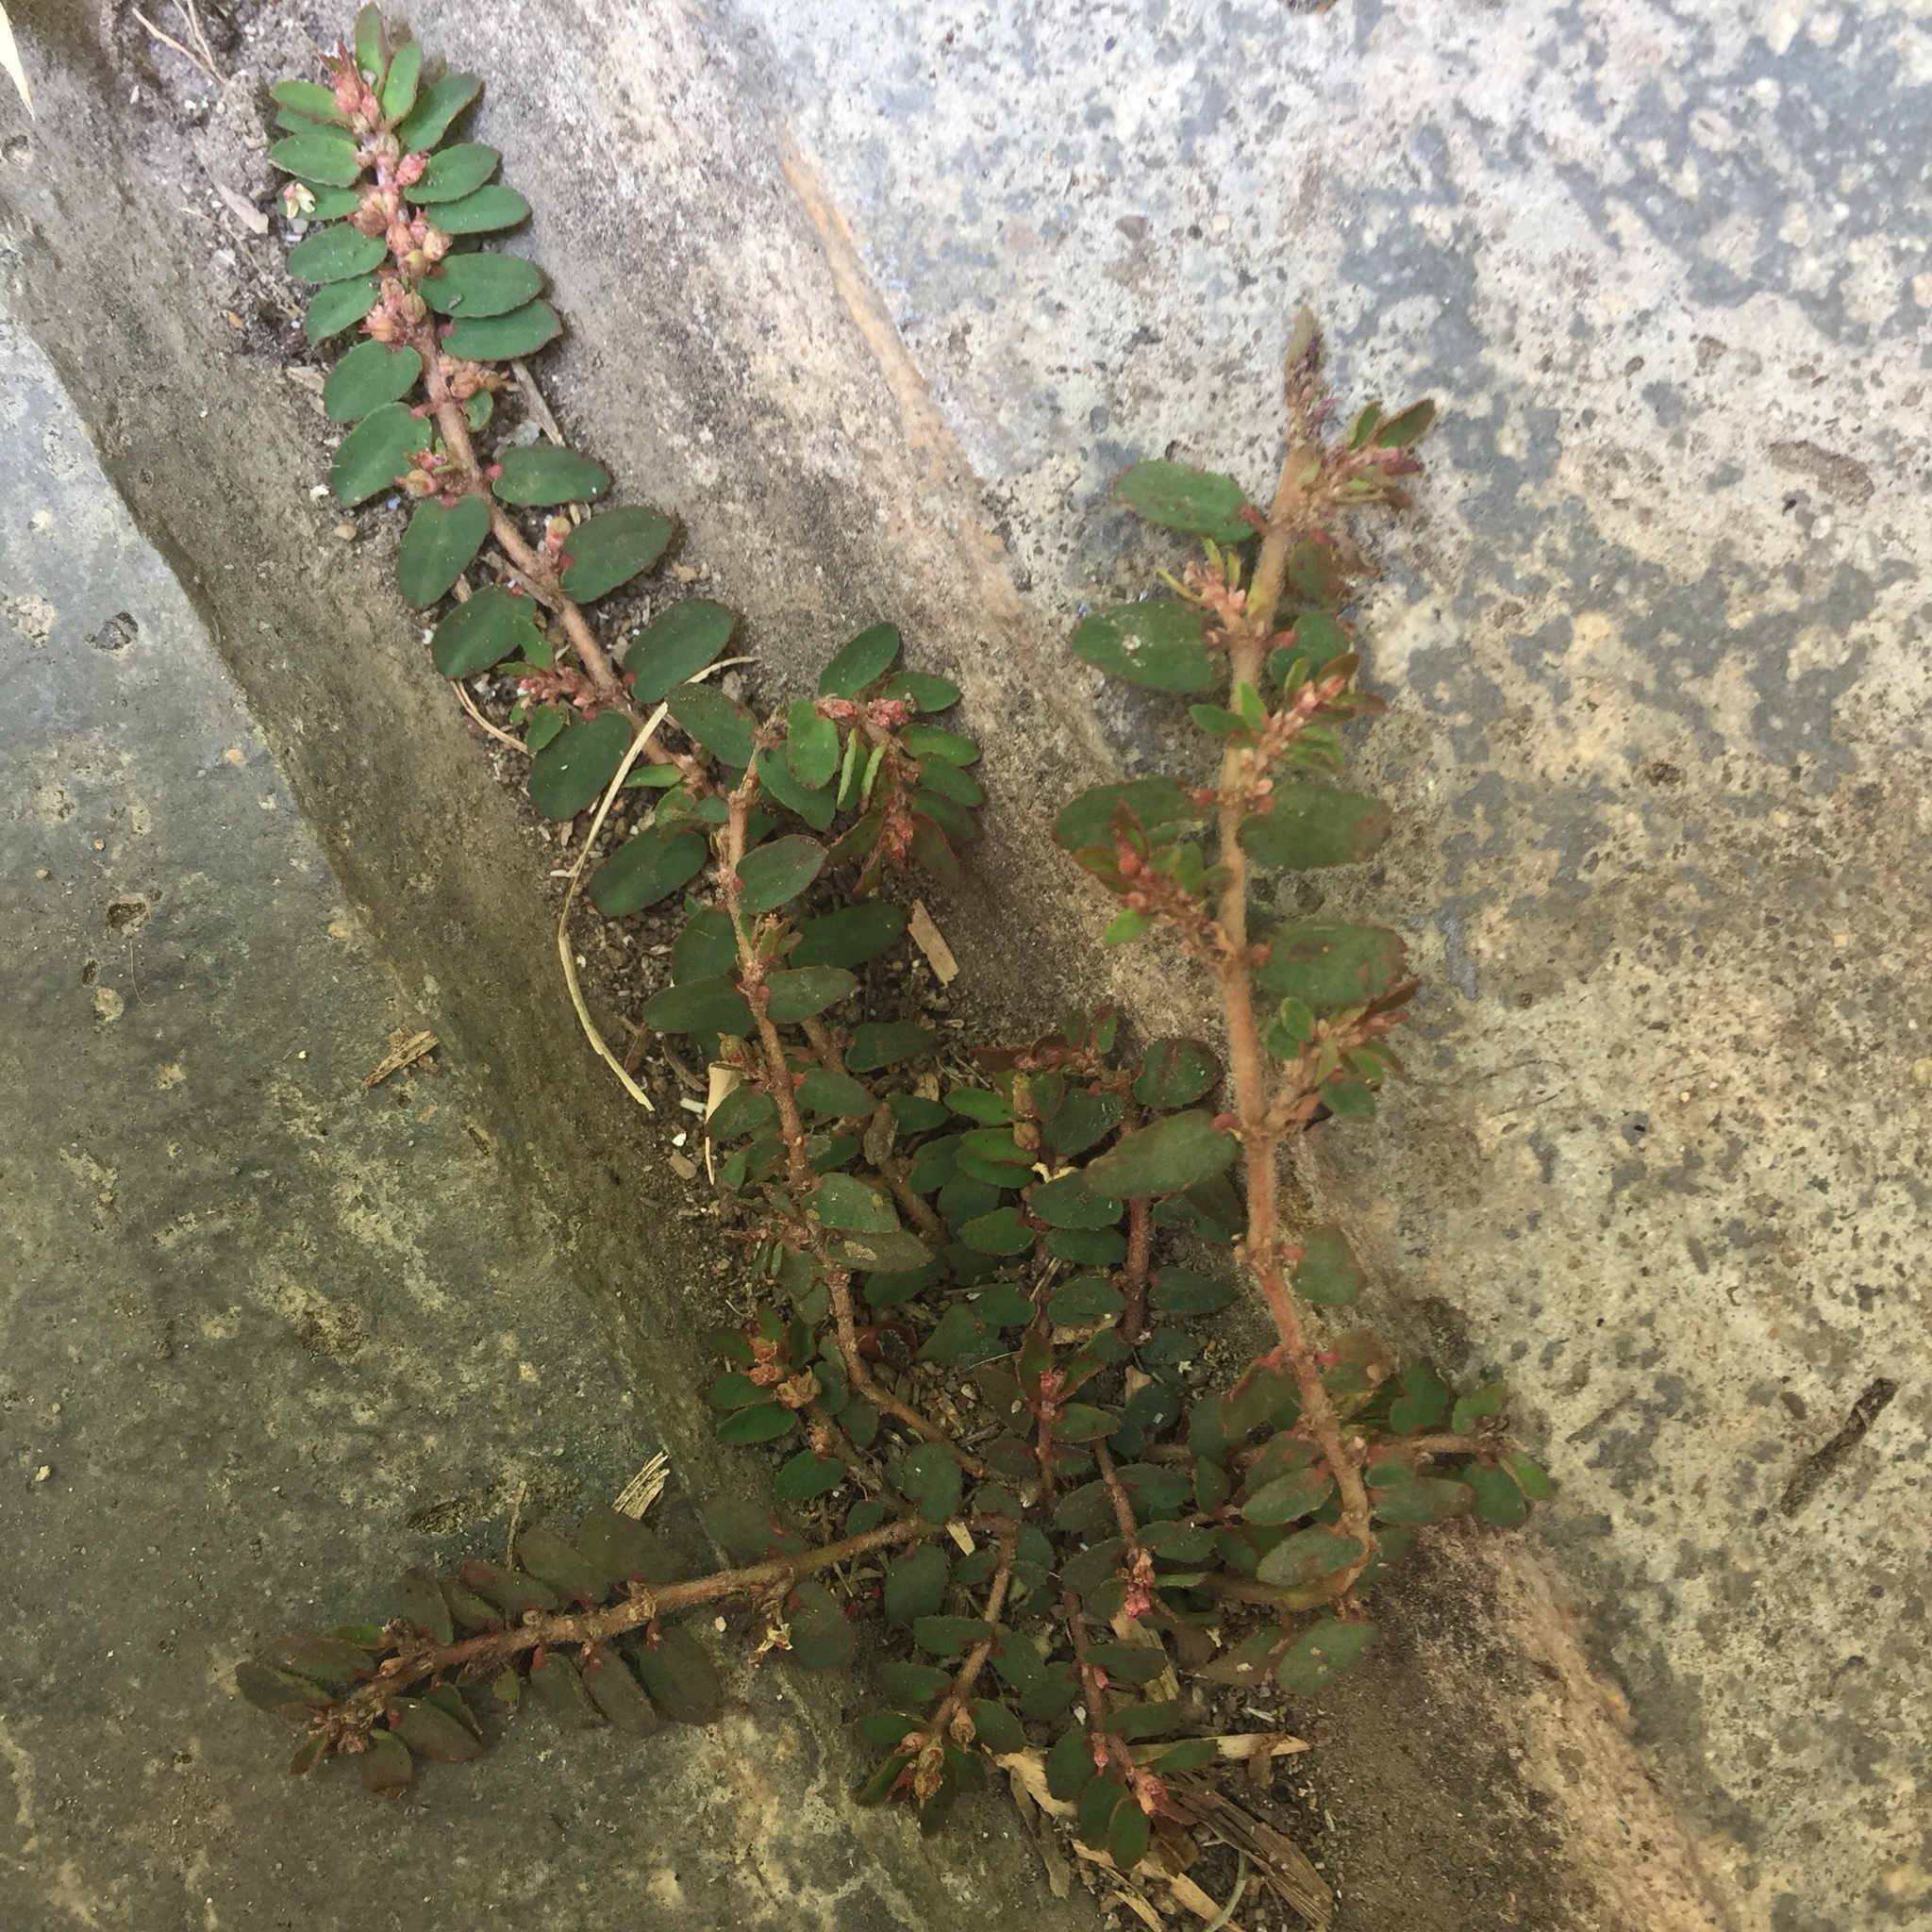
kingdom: Plantae
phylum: Tracheophyta
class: Magnoliopsida
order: Malpighiales
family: Euphorbiaceae
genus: Euphorbia
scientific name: Euphorbia thymifolia
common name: Gulf sandmat
